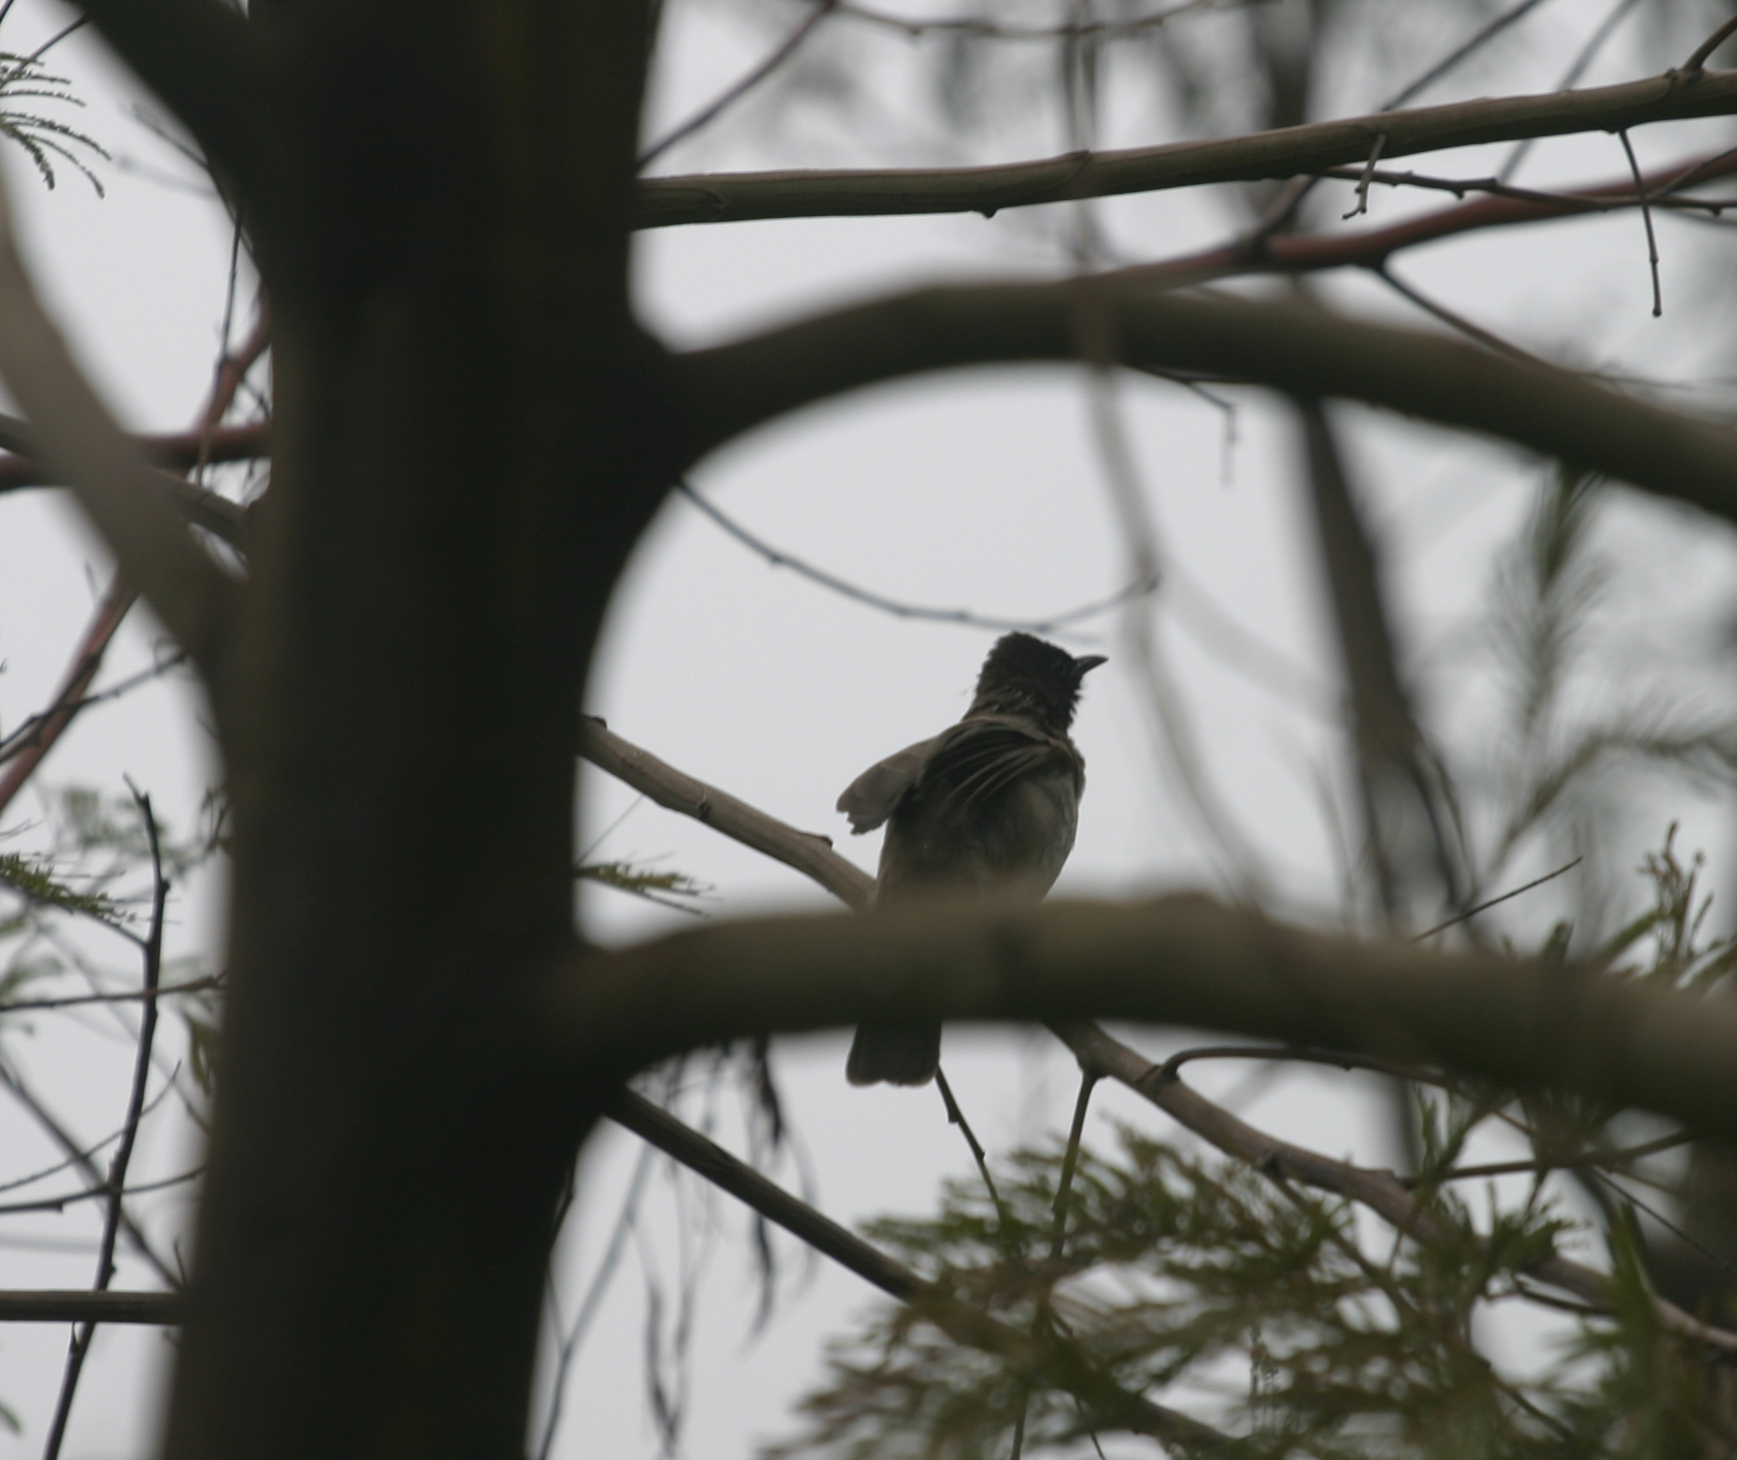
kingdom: Animalia
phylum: Chordata
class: Aves
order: Passeriformes
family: Pycnonotidae
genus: Pycnonotus
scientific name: Pycnonotus barbatus
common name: Common bulbul
